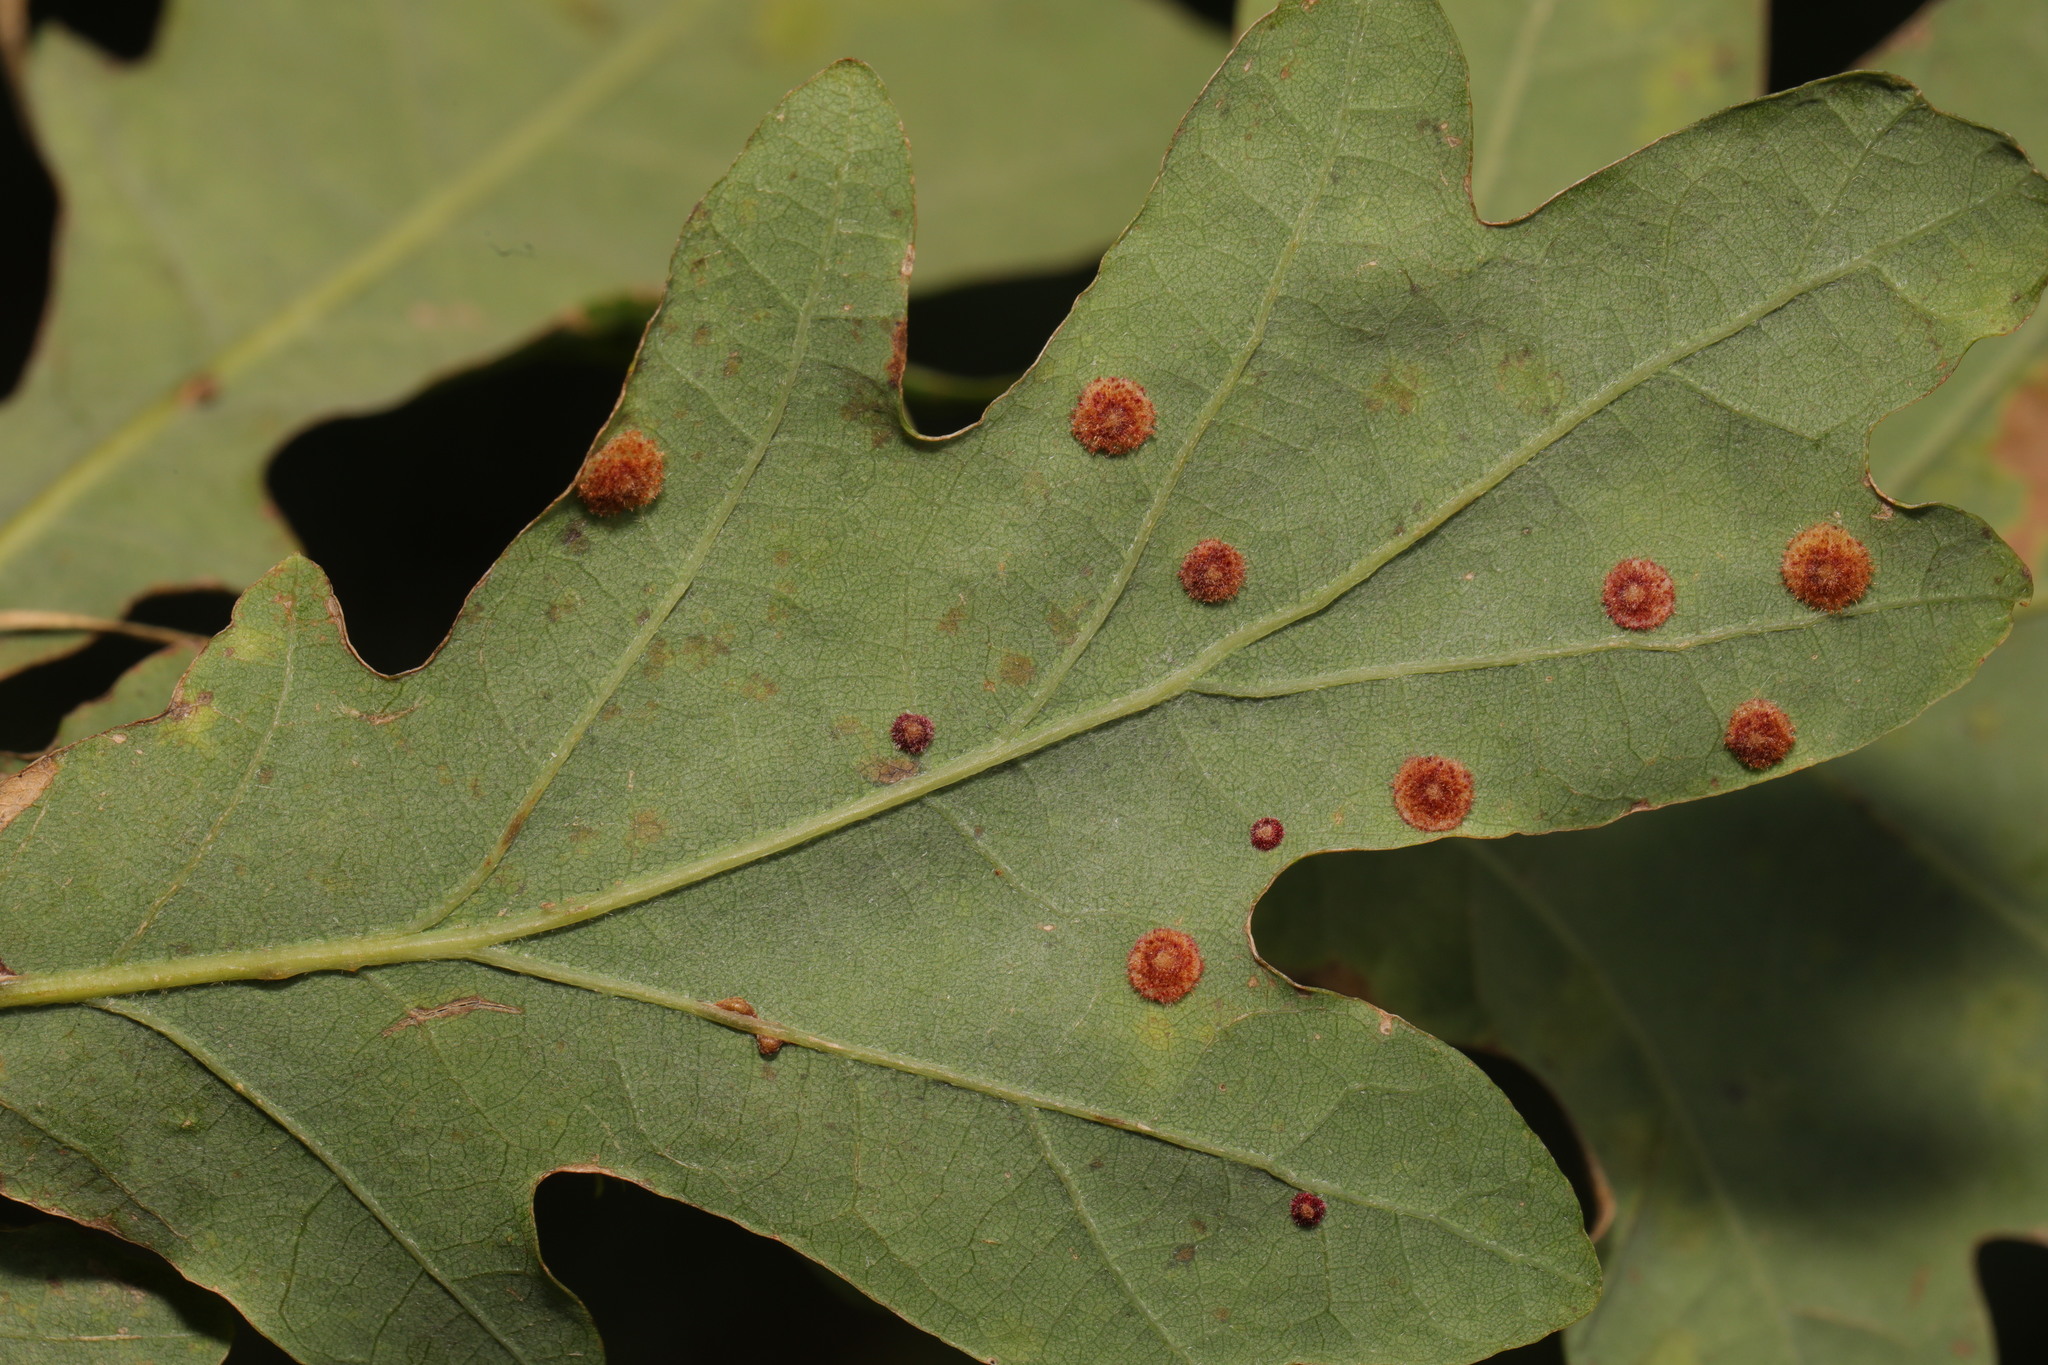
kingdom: Animalia
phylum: Arthropoda
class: Insecta
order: Hymenoptera
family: Cynipidae
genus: Neuroterus
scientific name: Neuroterus quercusbaccarum
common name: Common spangle gall
